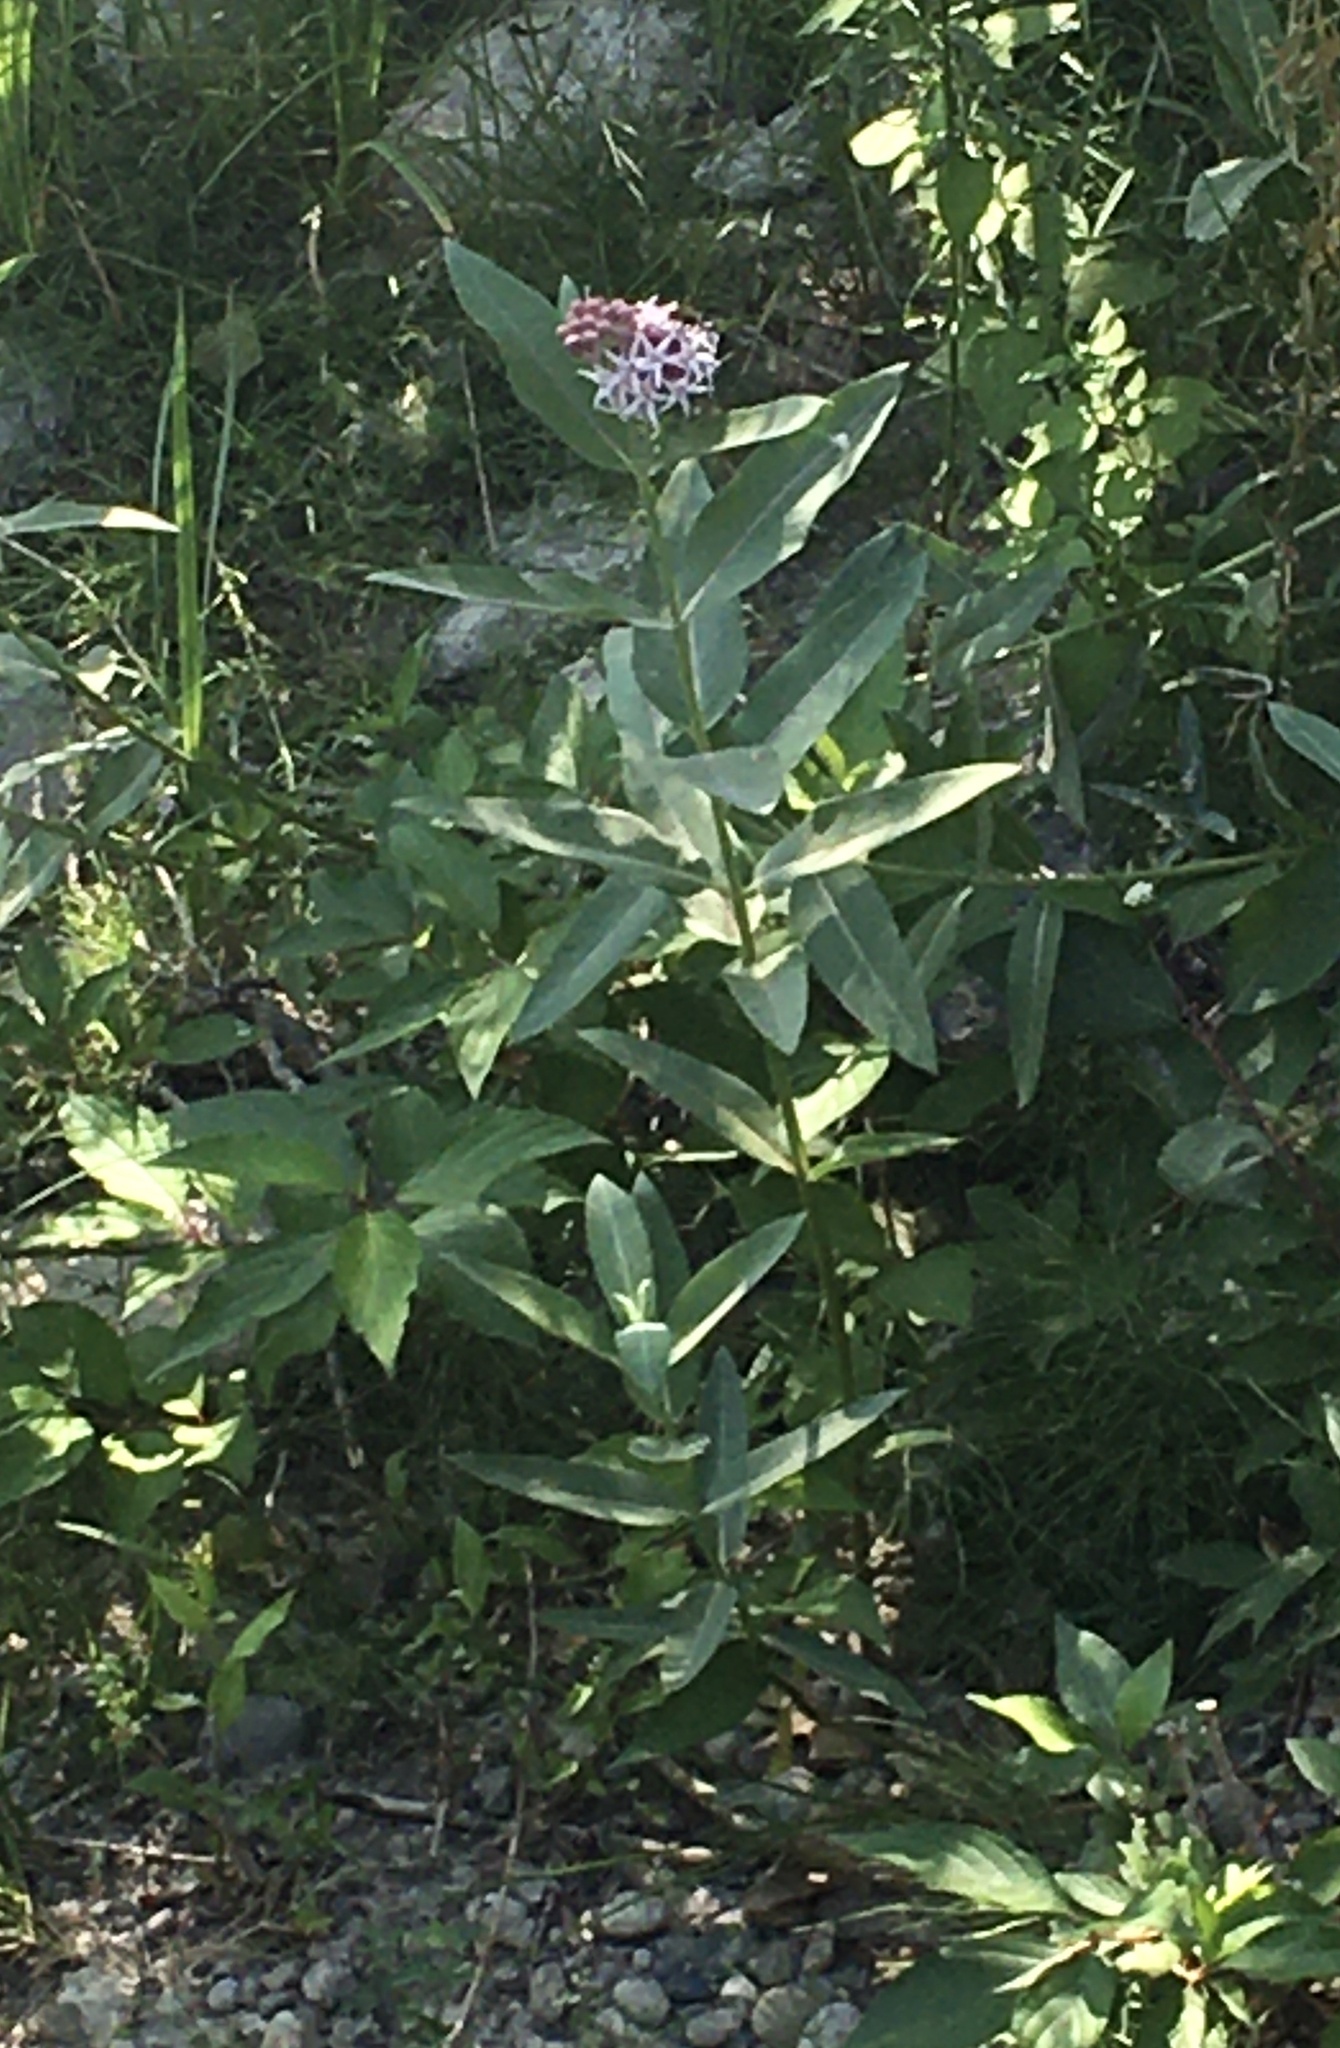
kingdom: Plantae
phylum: Tracheophyta
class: Magnoliopsida
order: Gentianales
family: Apocynaceae
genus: Asclepias
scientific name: Asclepias speciosa
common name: Showy milkweed
